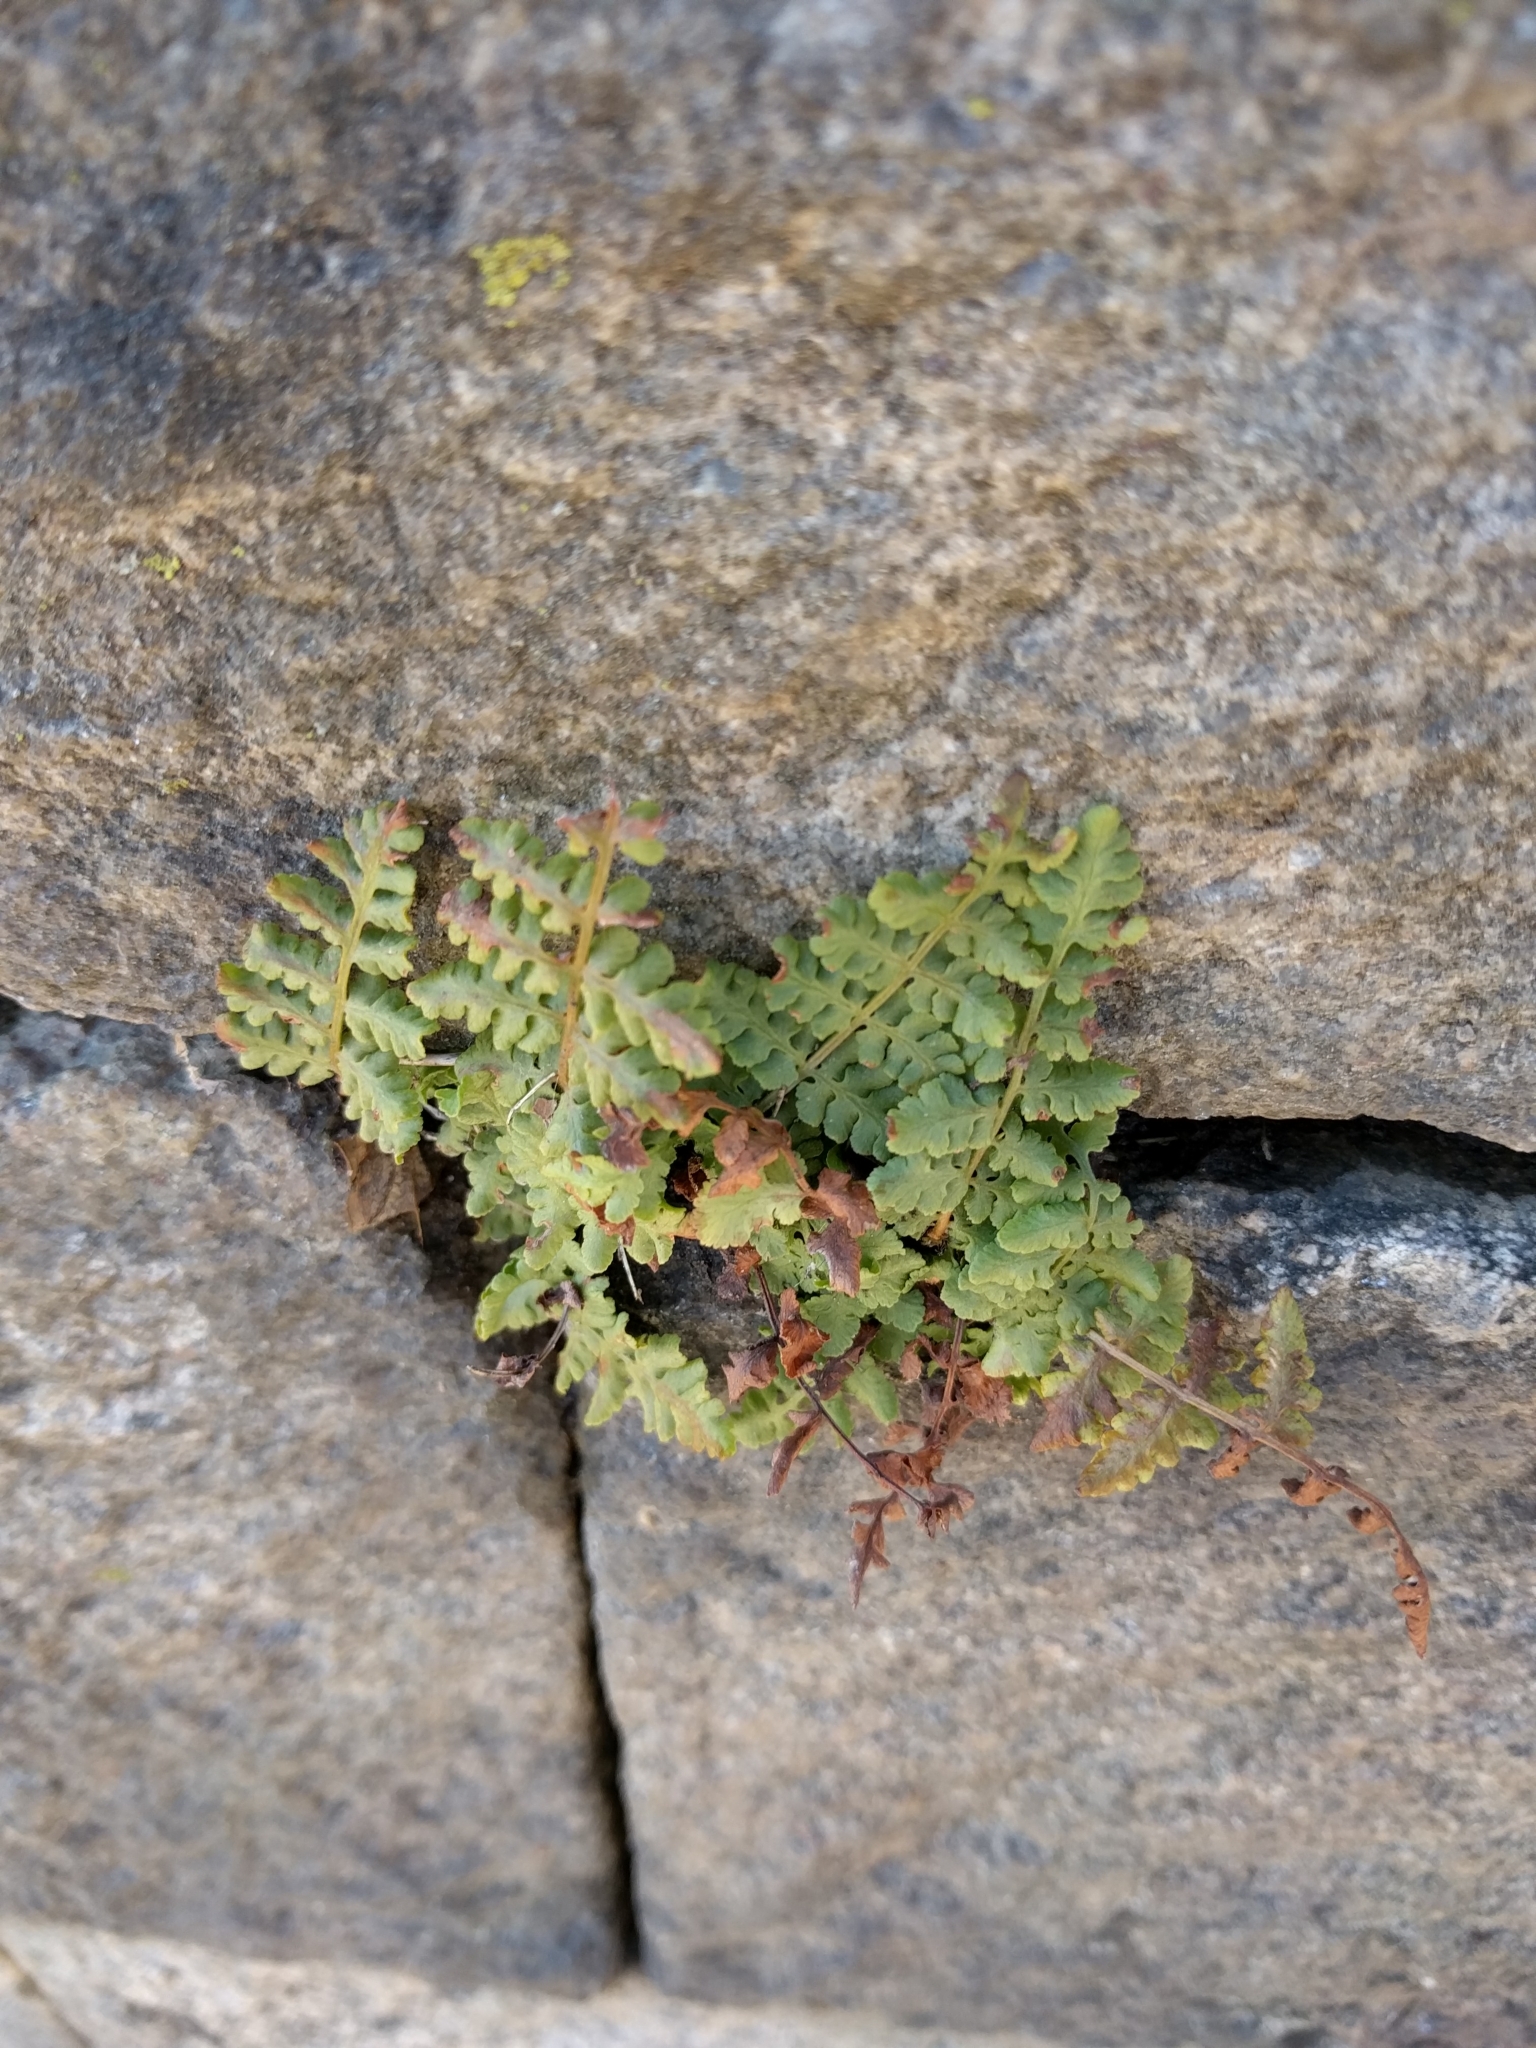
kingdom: Plantae
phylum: Tracheophyta
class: Polypodiopsida
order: Polypodiales
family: Woodsiaceae
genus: Physematium
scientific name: Physematium obtusum
